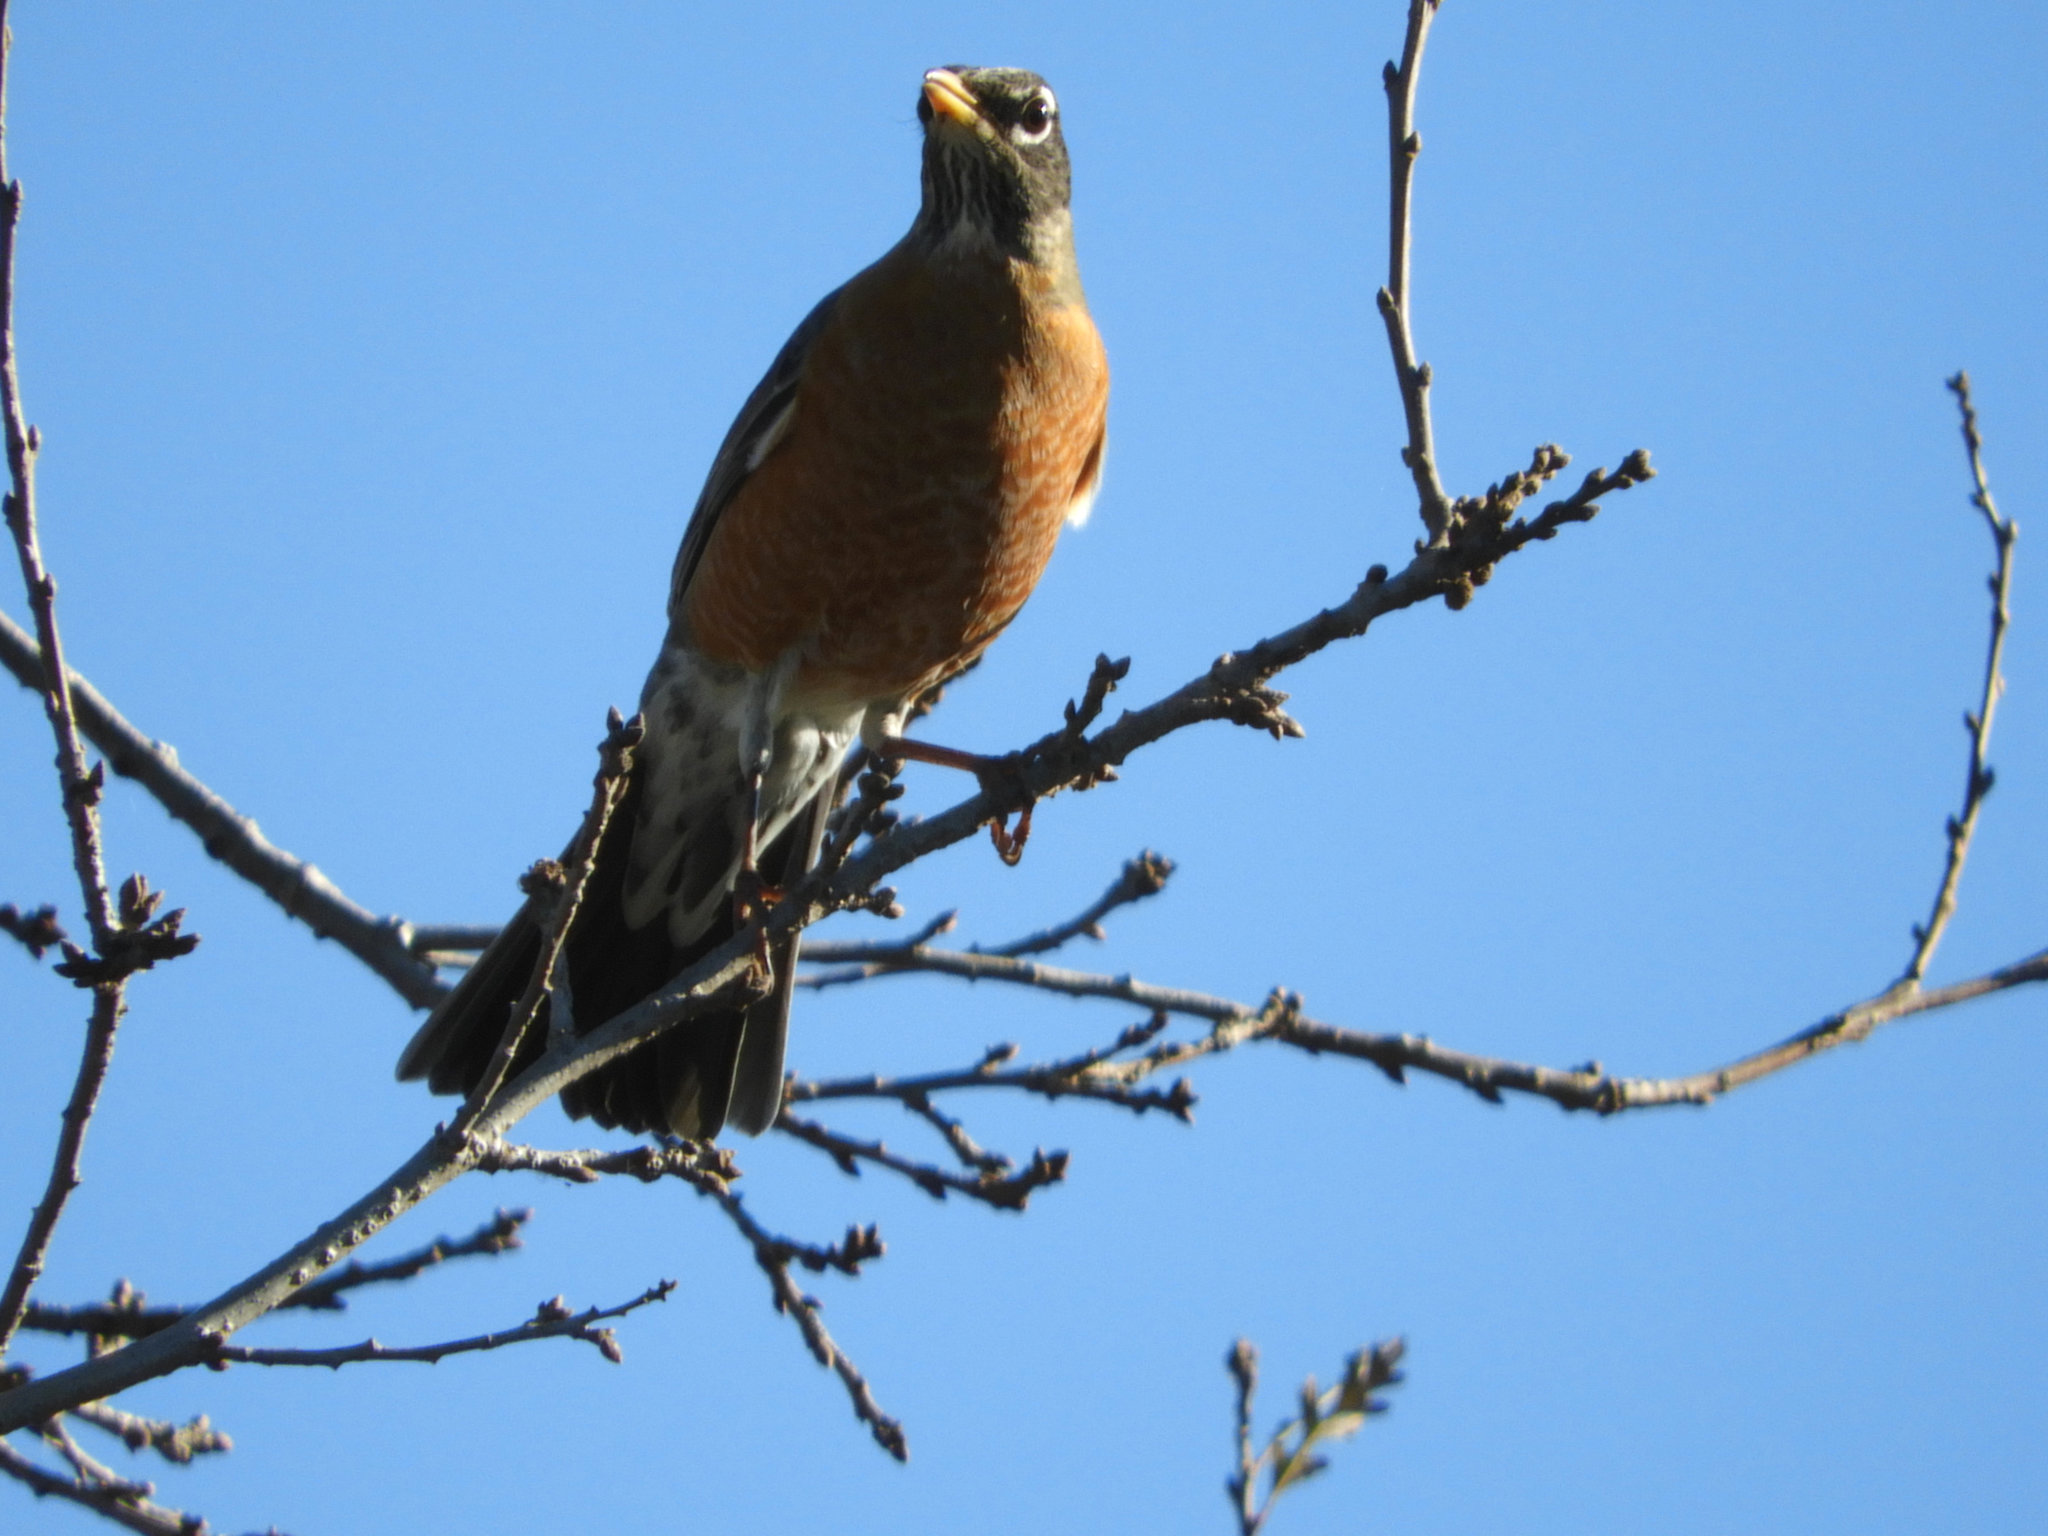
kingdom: Animalia
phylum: Chordata
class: Aves
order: Passeriformes
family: Turdidae
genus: Turdus
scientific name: Turdus migratorius
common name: American robin
